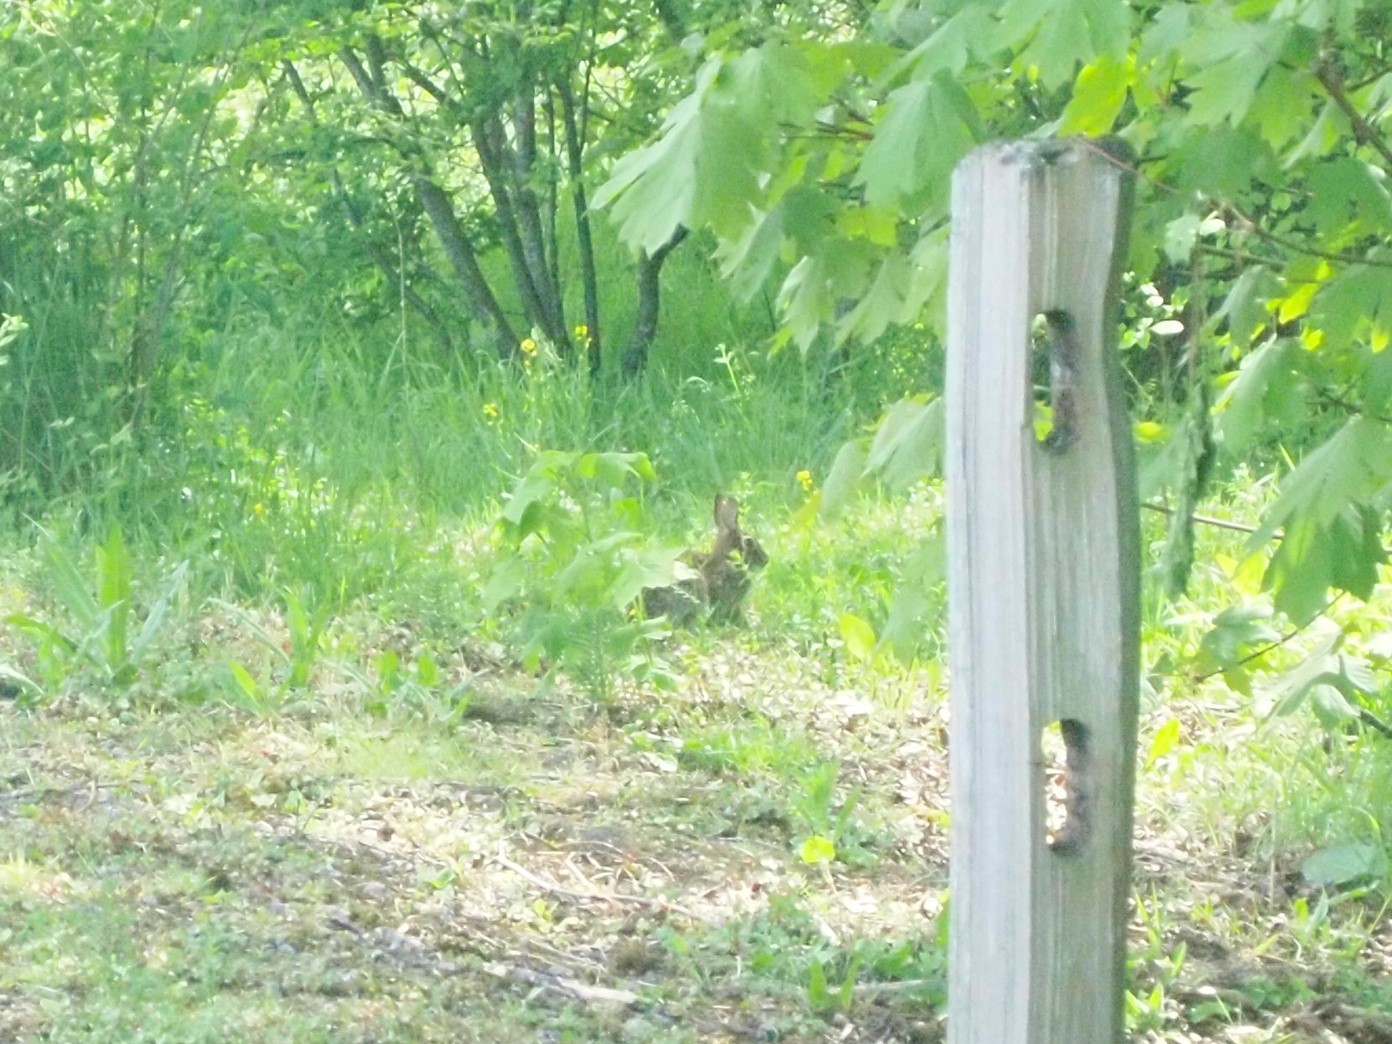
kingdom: Animalia
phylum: Chordata
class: Mammalia
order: Lagomorpha
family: Leporidae
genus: Sylvilagus
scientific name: Sylvilagus
